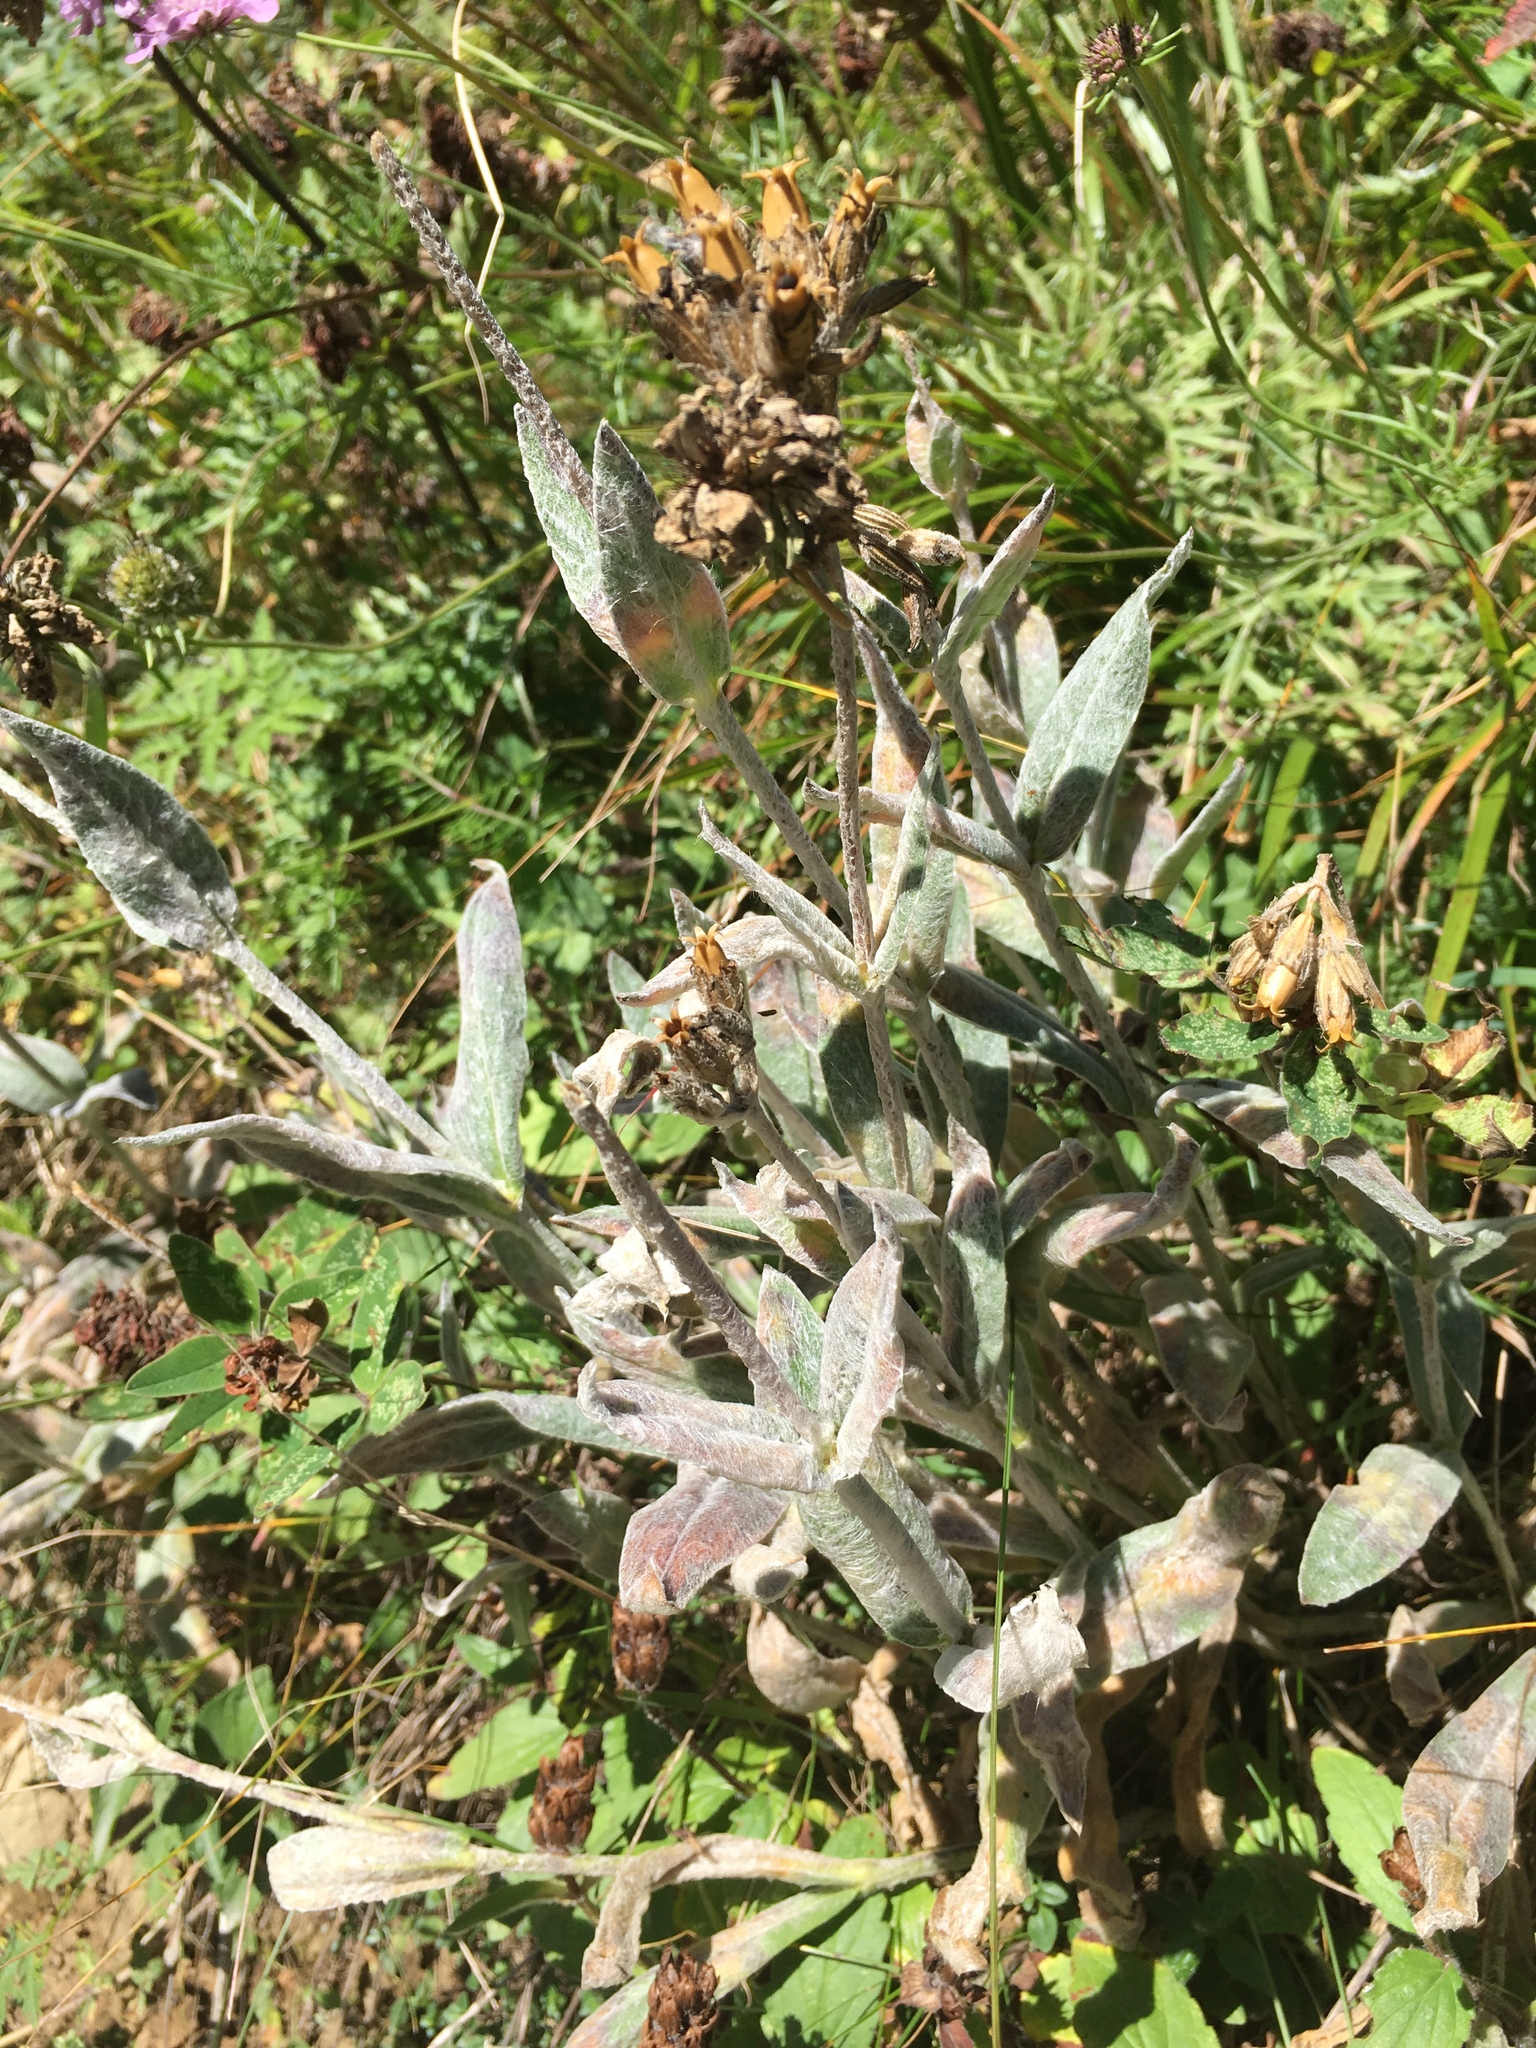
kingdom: Plantae
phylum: Tracheophyta
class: Magnoliopsida
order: Caryophyllales
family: Caryophyllaceae
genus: Silene
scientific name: Silene flos-jovis
